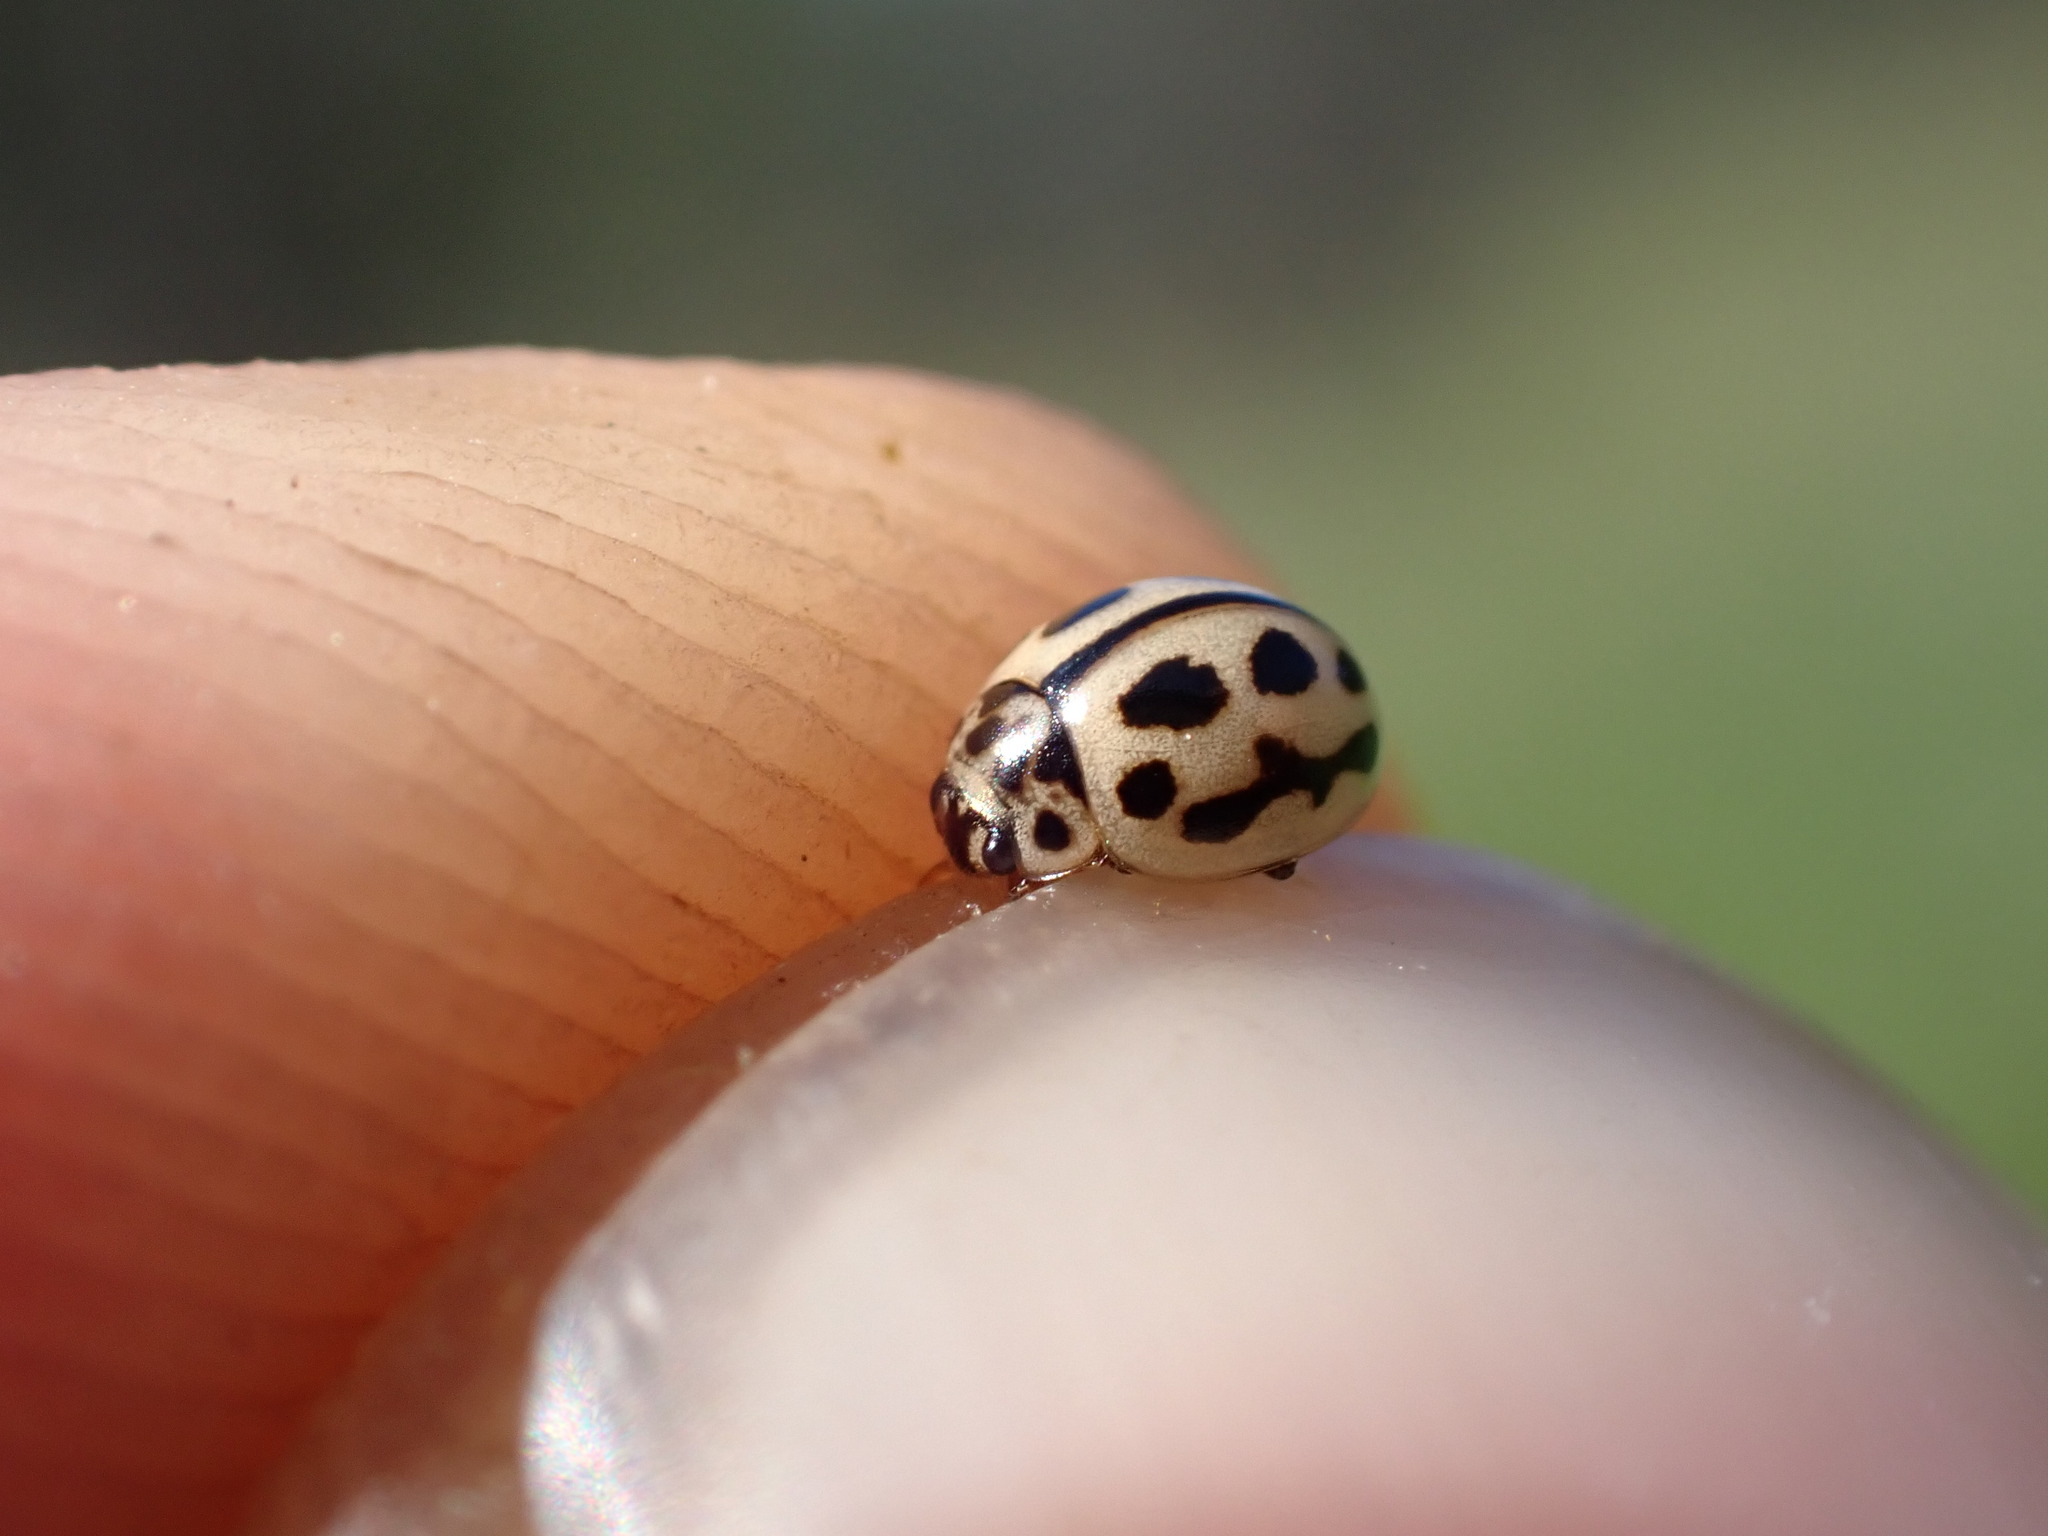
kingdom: Animalia
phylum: Arthropoda
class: Insecta
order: Coleoptera
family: Coccinellidae
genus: Tytthaspis
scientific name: Tytthaspis sedecimpunctata
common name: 16-spot ladybird
